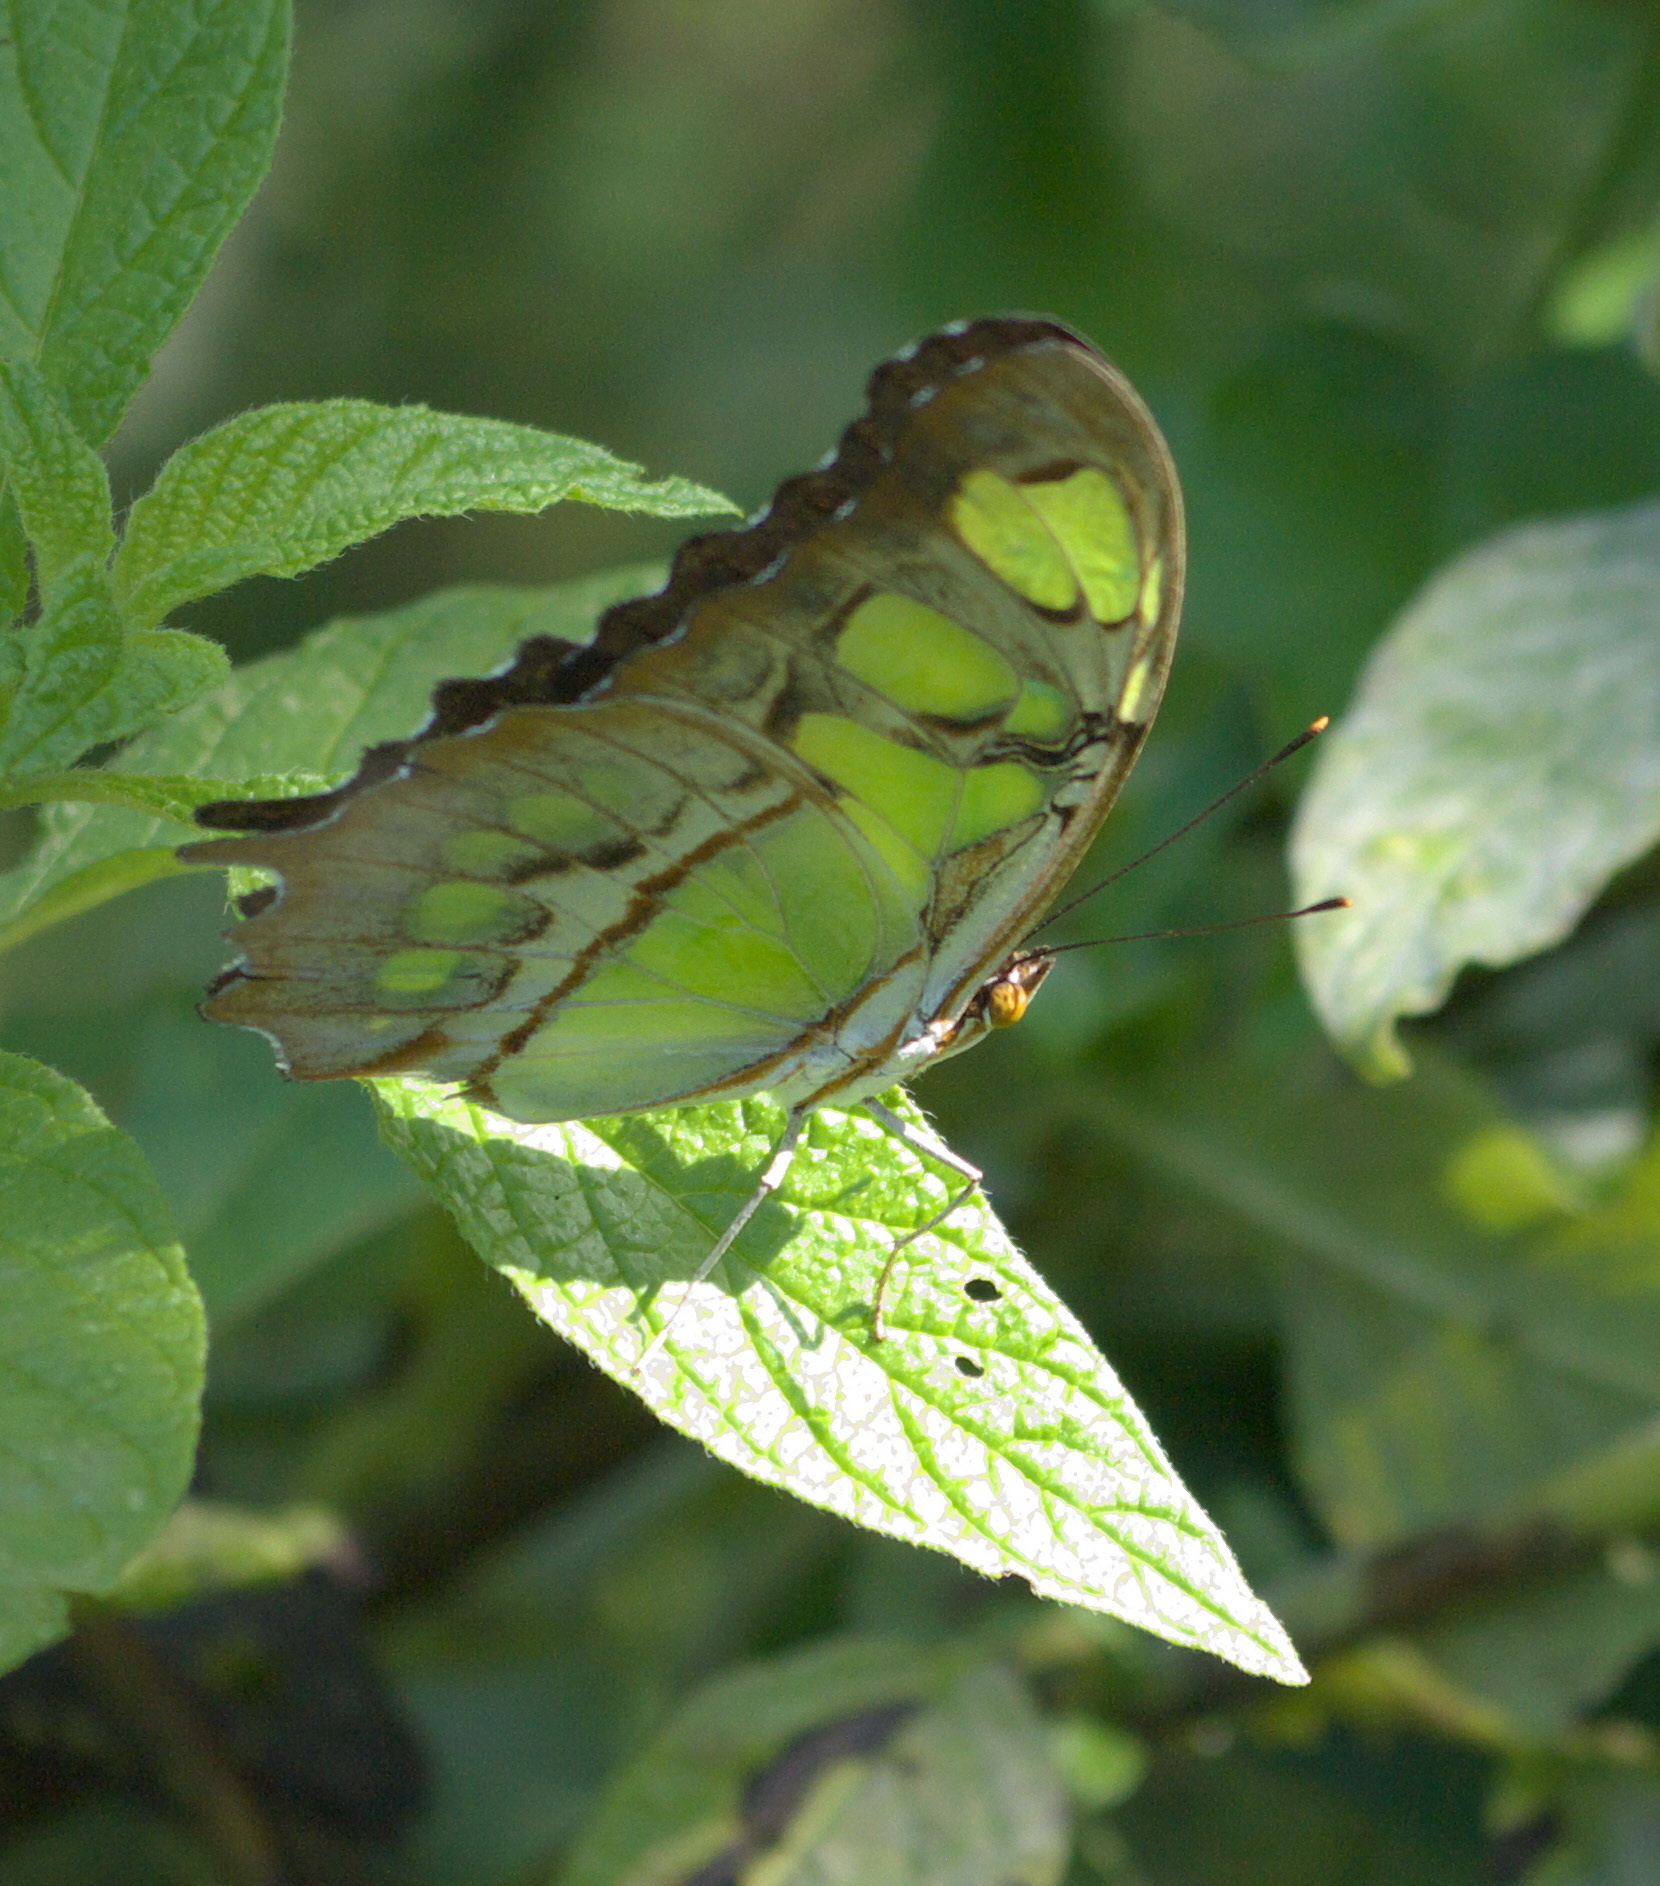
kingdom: Animalia
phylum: Arthropoda
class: Insecta
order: Lepidoptera
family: Nymphalidae
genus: Siproeta
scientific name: Siproeta stelenes
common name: Malachite
